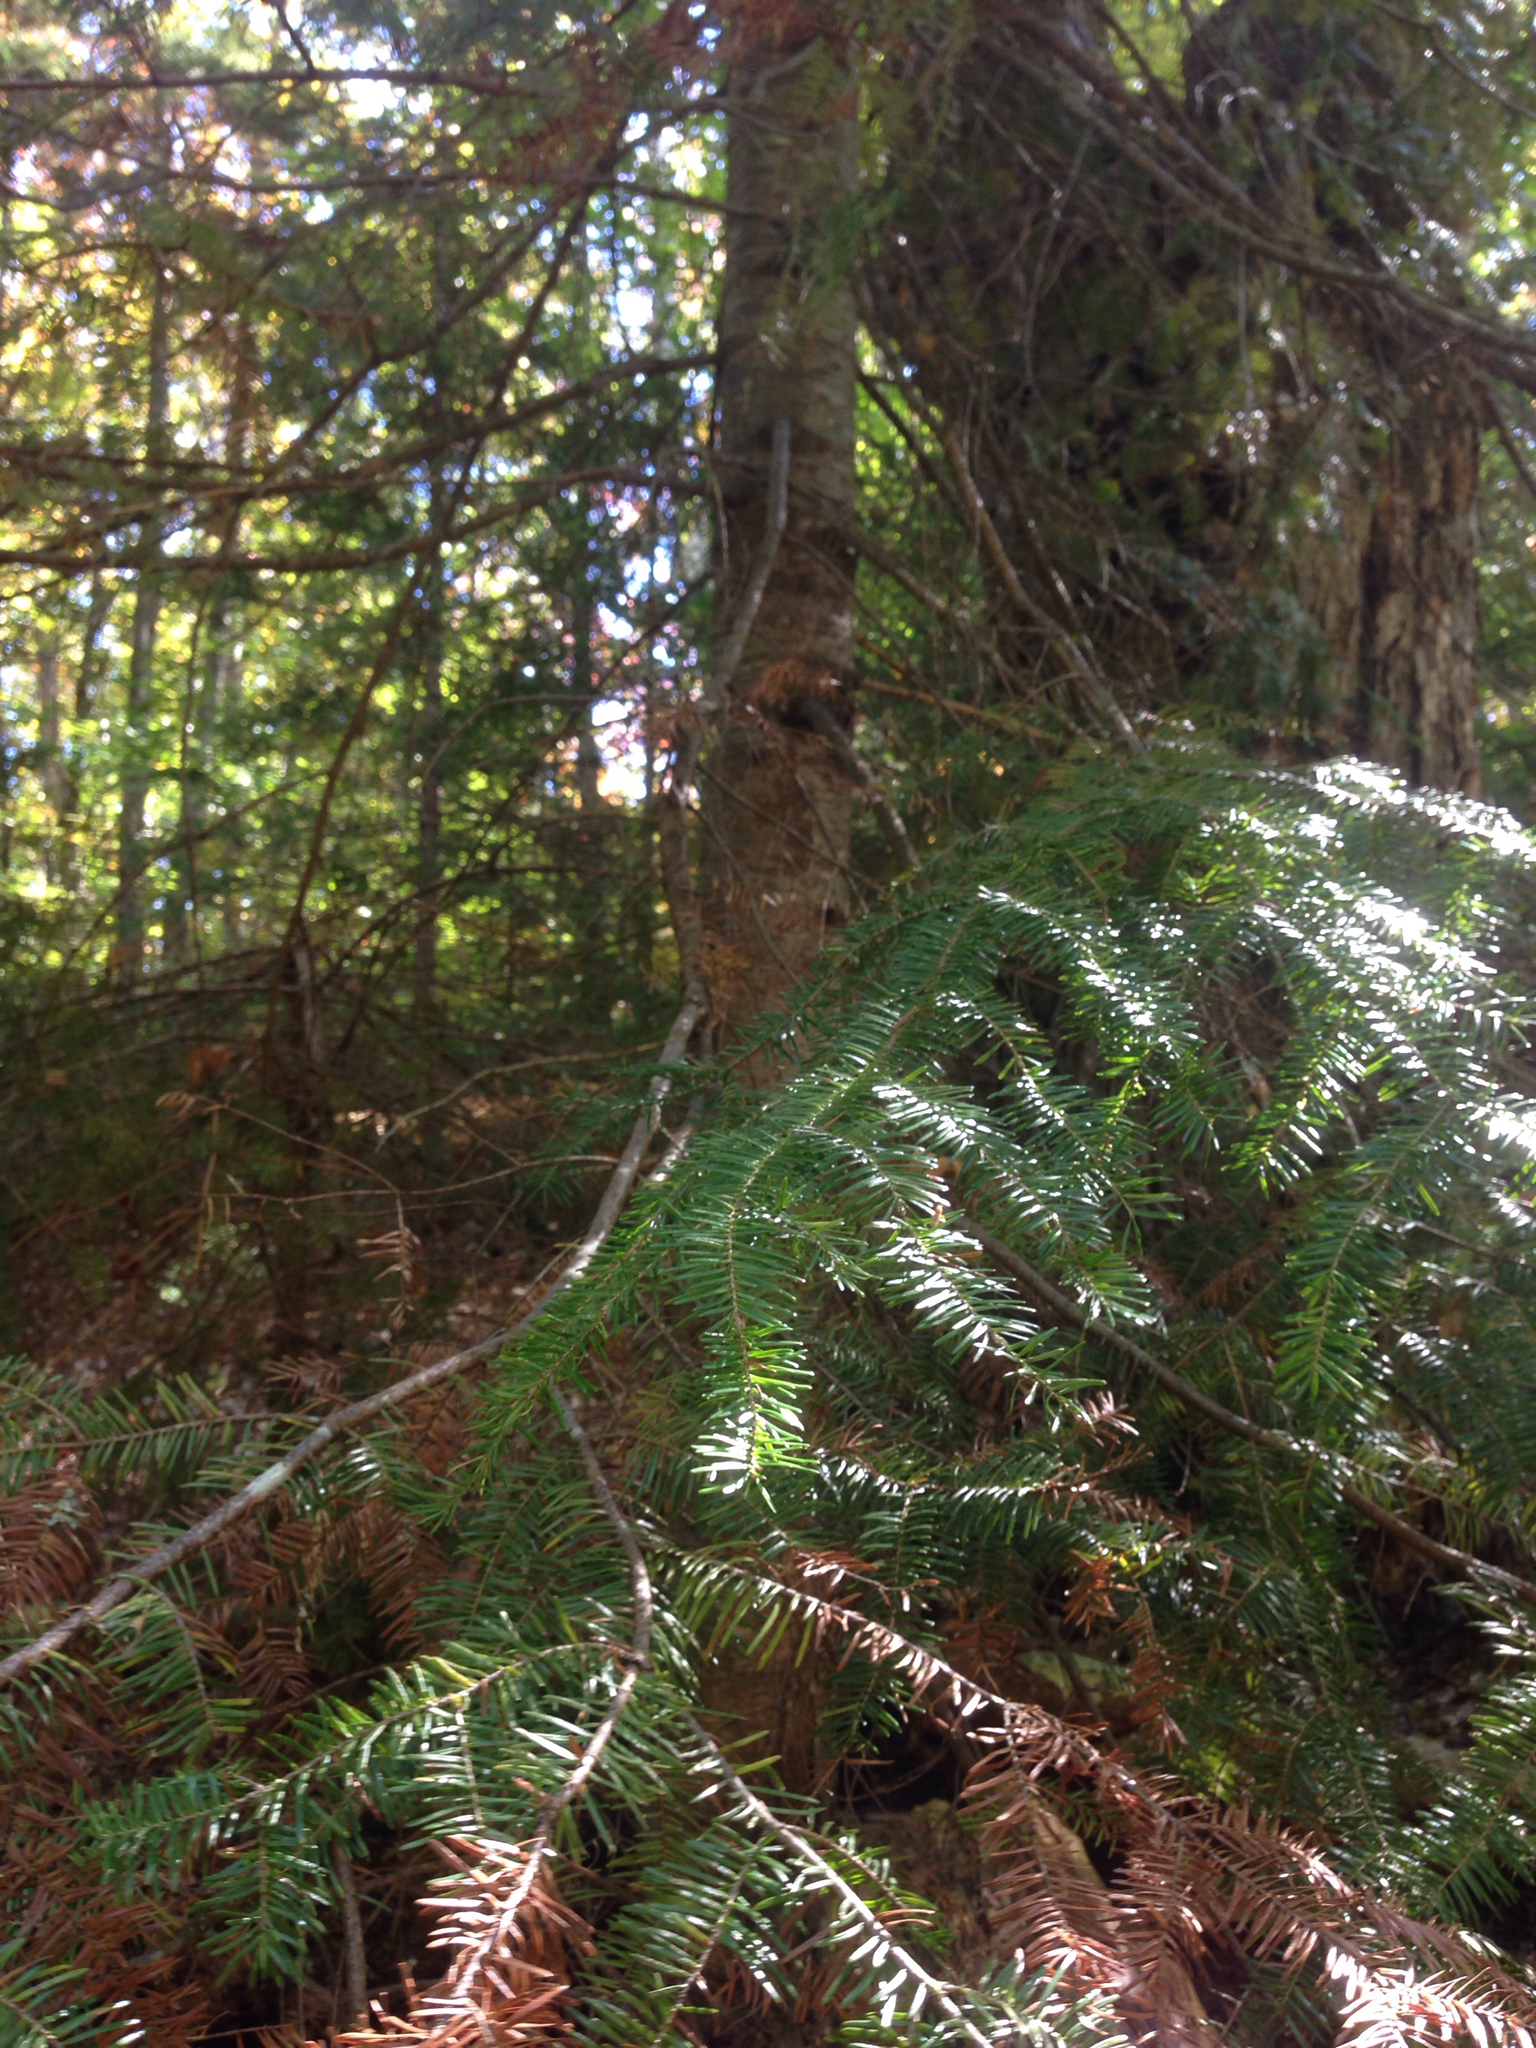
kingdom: Plantae
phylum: Tracheophyta
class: Pinopsida
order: Pinales
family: Pinaceae
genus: Abies
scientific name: Abies balsamea
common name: Balsam fir
